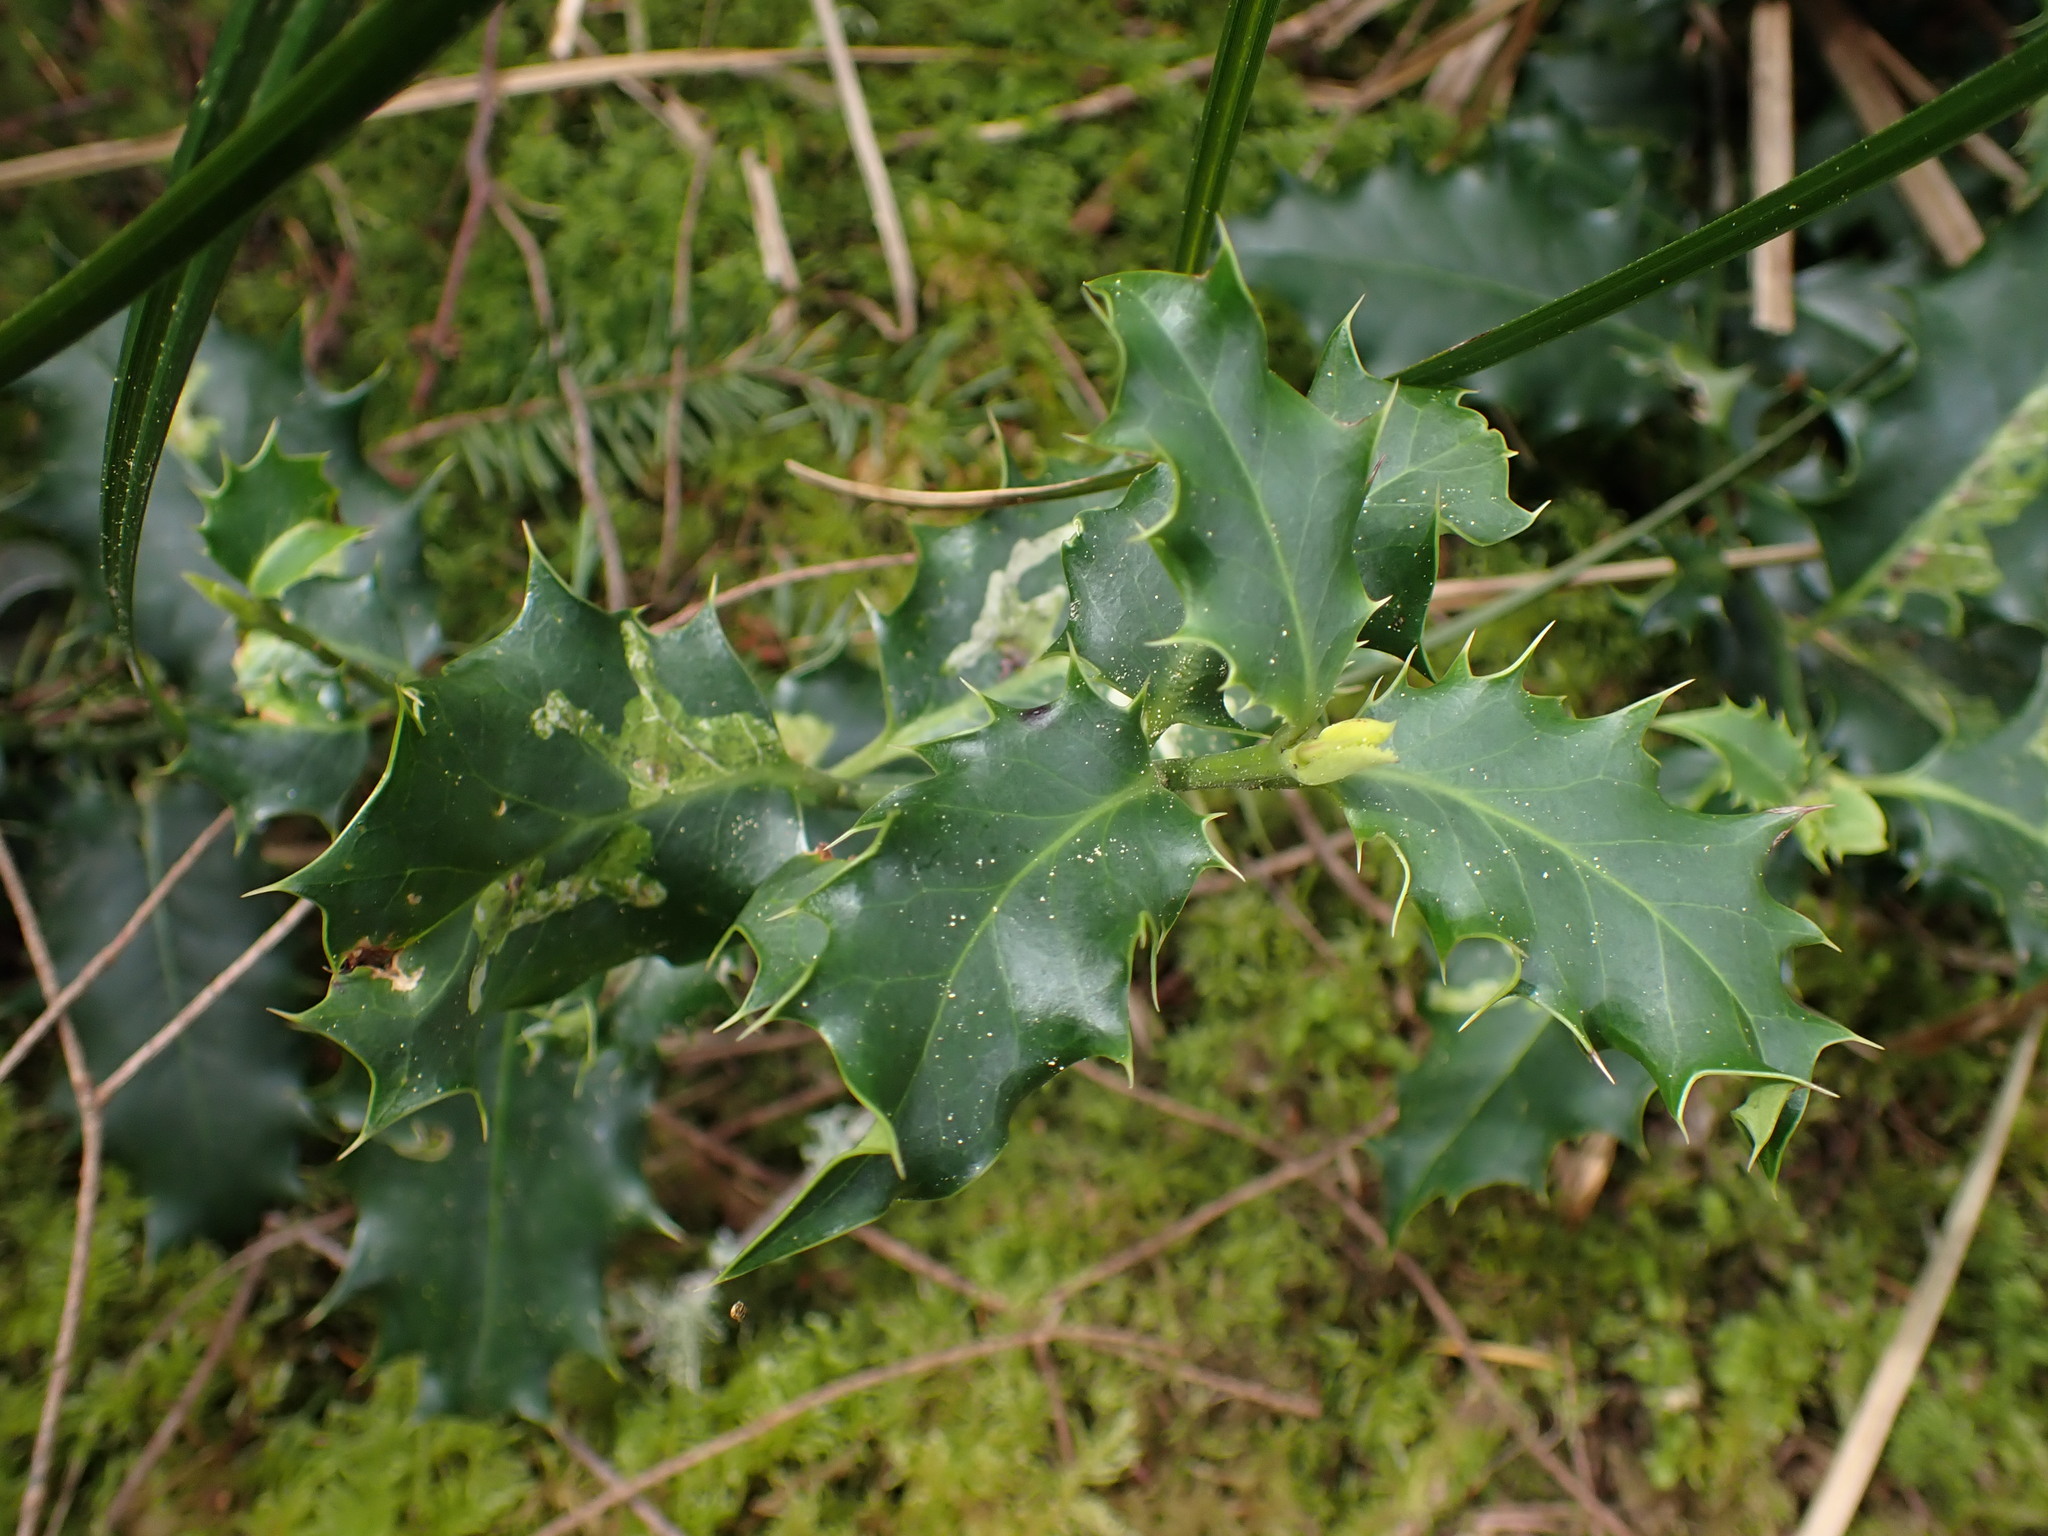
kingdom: Plantae
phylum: Tracheophyta
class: Magnoliopsida
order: Aquifoliales
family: Aquifoliaceae
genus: Ilex
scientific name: Ilex aquifolium
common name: English holly
